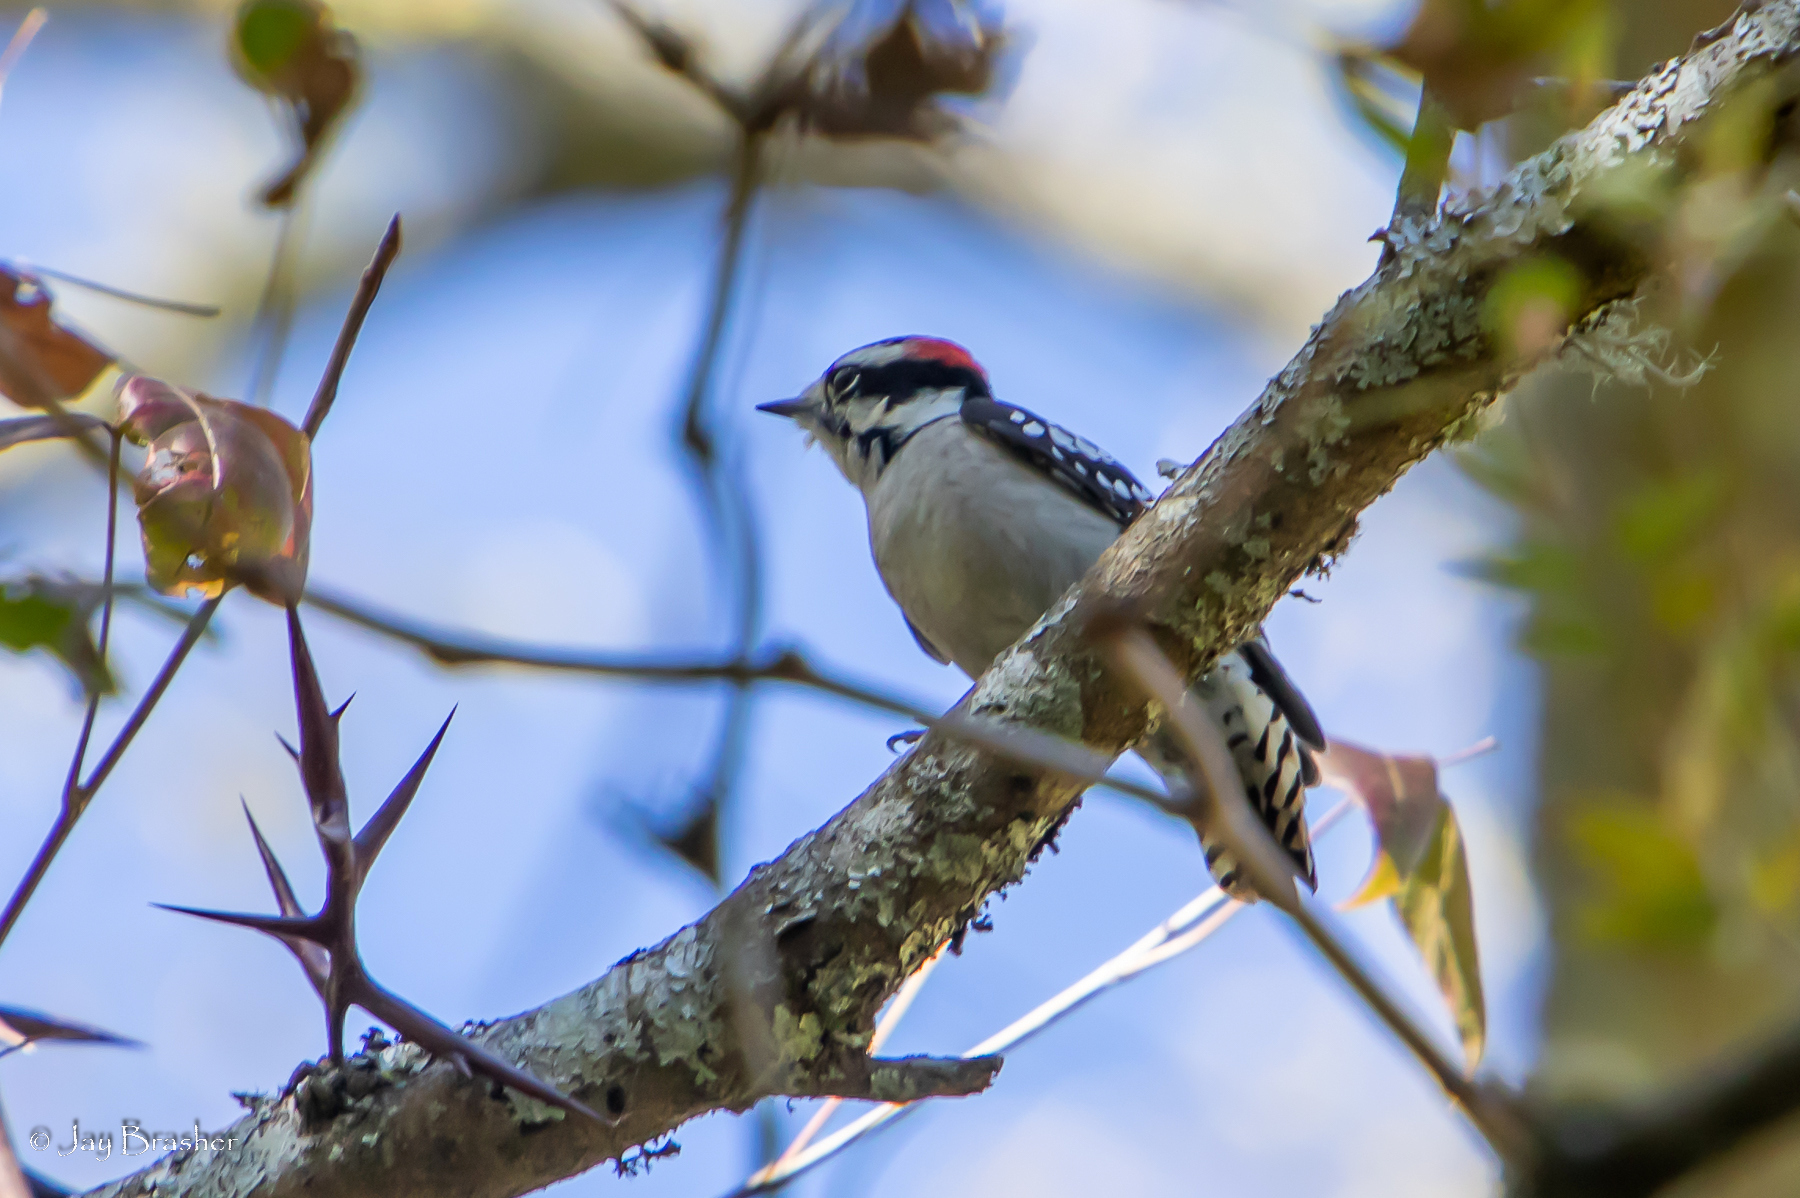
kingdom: Animalia
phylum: Chordata
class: Aves
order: Piciformes
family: Picidae
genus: Dryobates
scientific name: Dryobates pubescens
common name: Downy woodpecker
